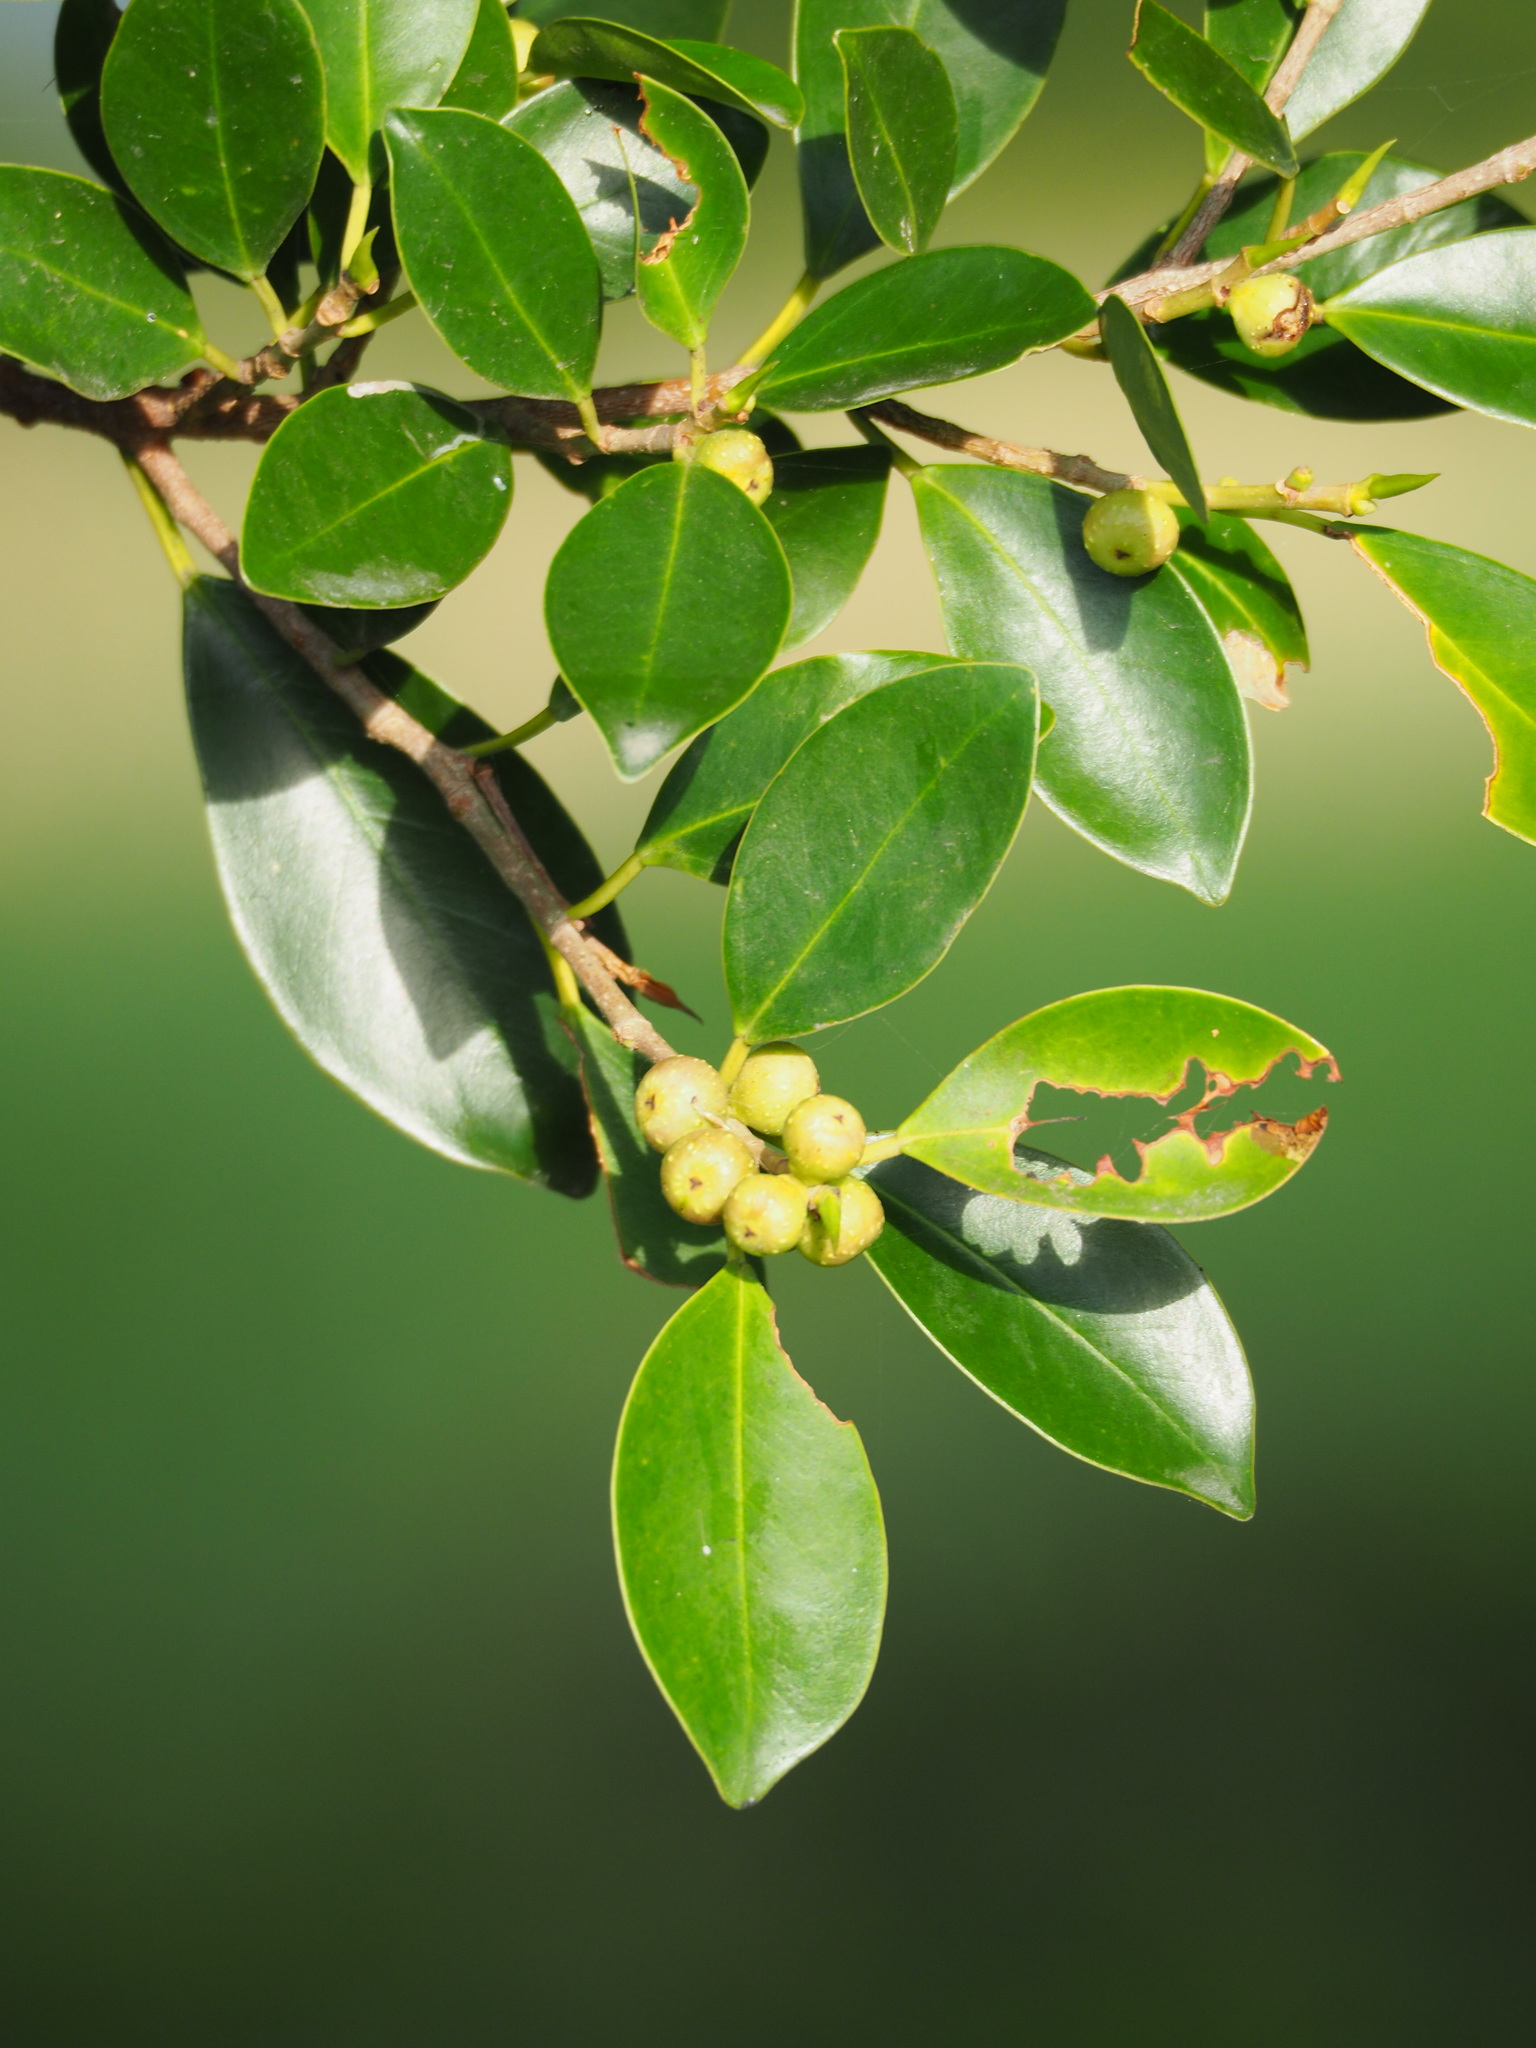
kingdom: Plantae
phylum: Tracheophyta
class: Magnoliopsida
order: Rosales
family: Moraceae
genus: Ficus
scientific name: Ficus microcarpa
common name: Chinese banyan
